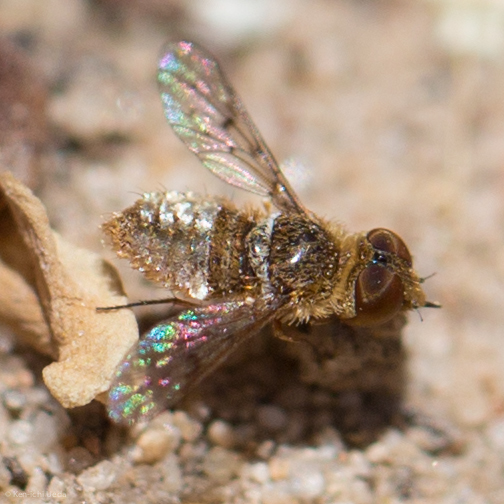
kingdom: Animalia
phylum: Arthropoda
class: Insecta
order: Diptera
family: Bombyliidae
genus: Lepidanthrax
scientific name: Lepidanthrax oribates
